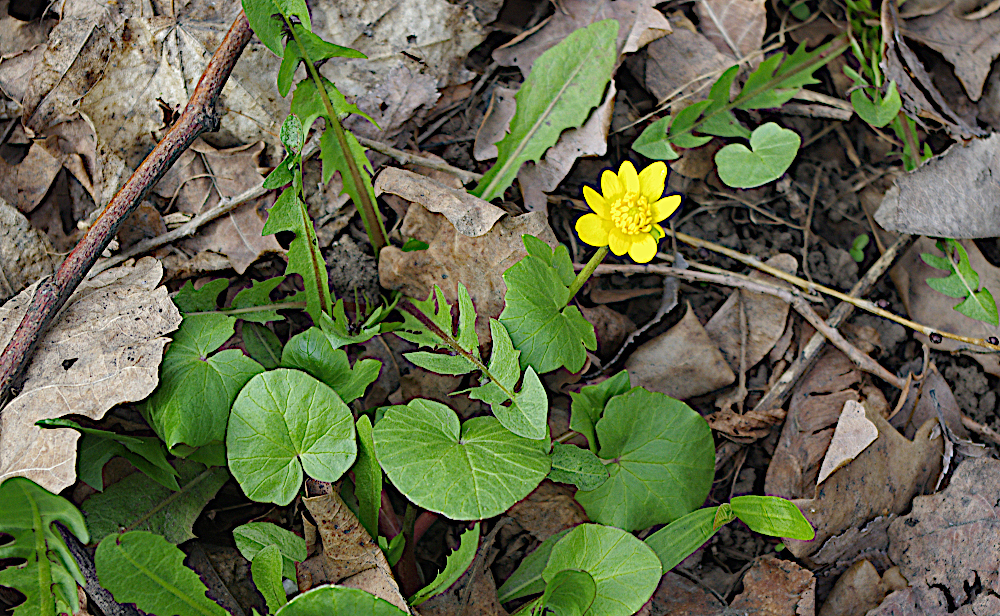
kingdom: Plantae
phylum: Tracheophyta
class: Magnoliopsida
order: Ranunculales
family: Ranunculaceae
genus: Ficaria
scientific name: Ficaria verna
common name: Lesser celandine
